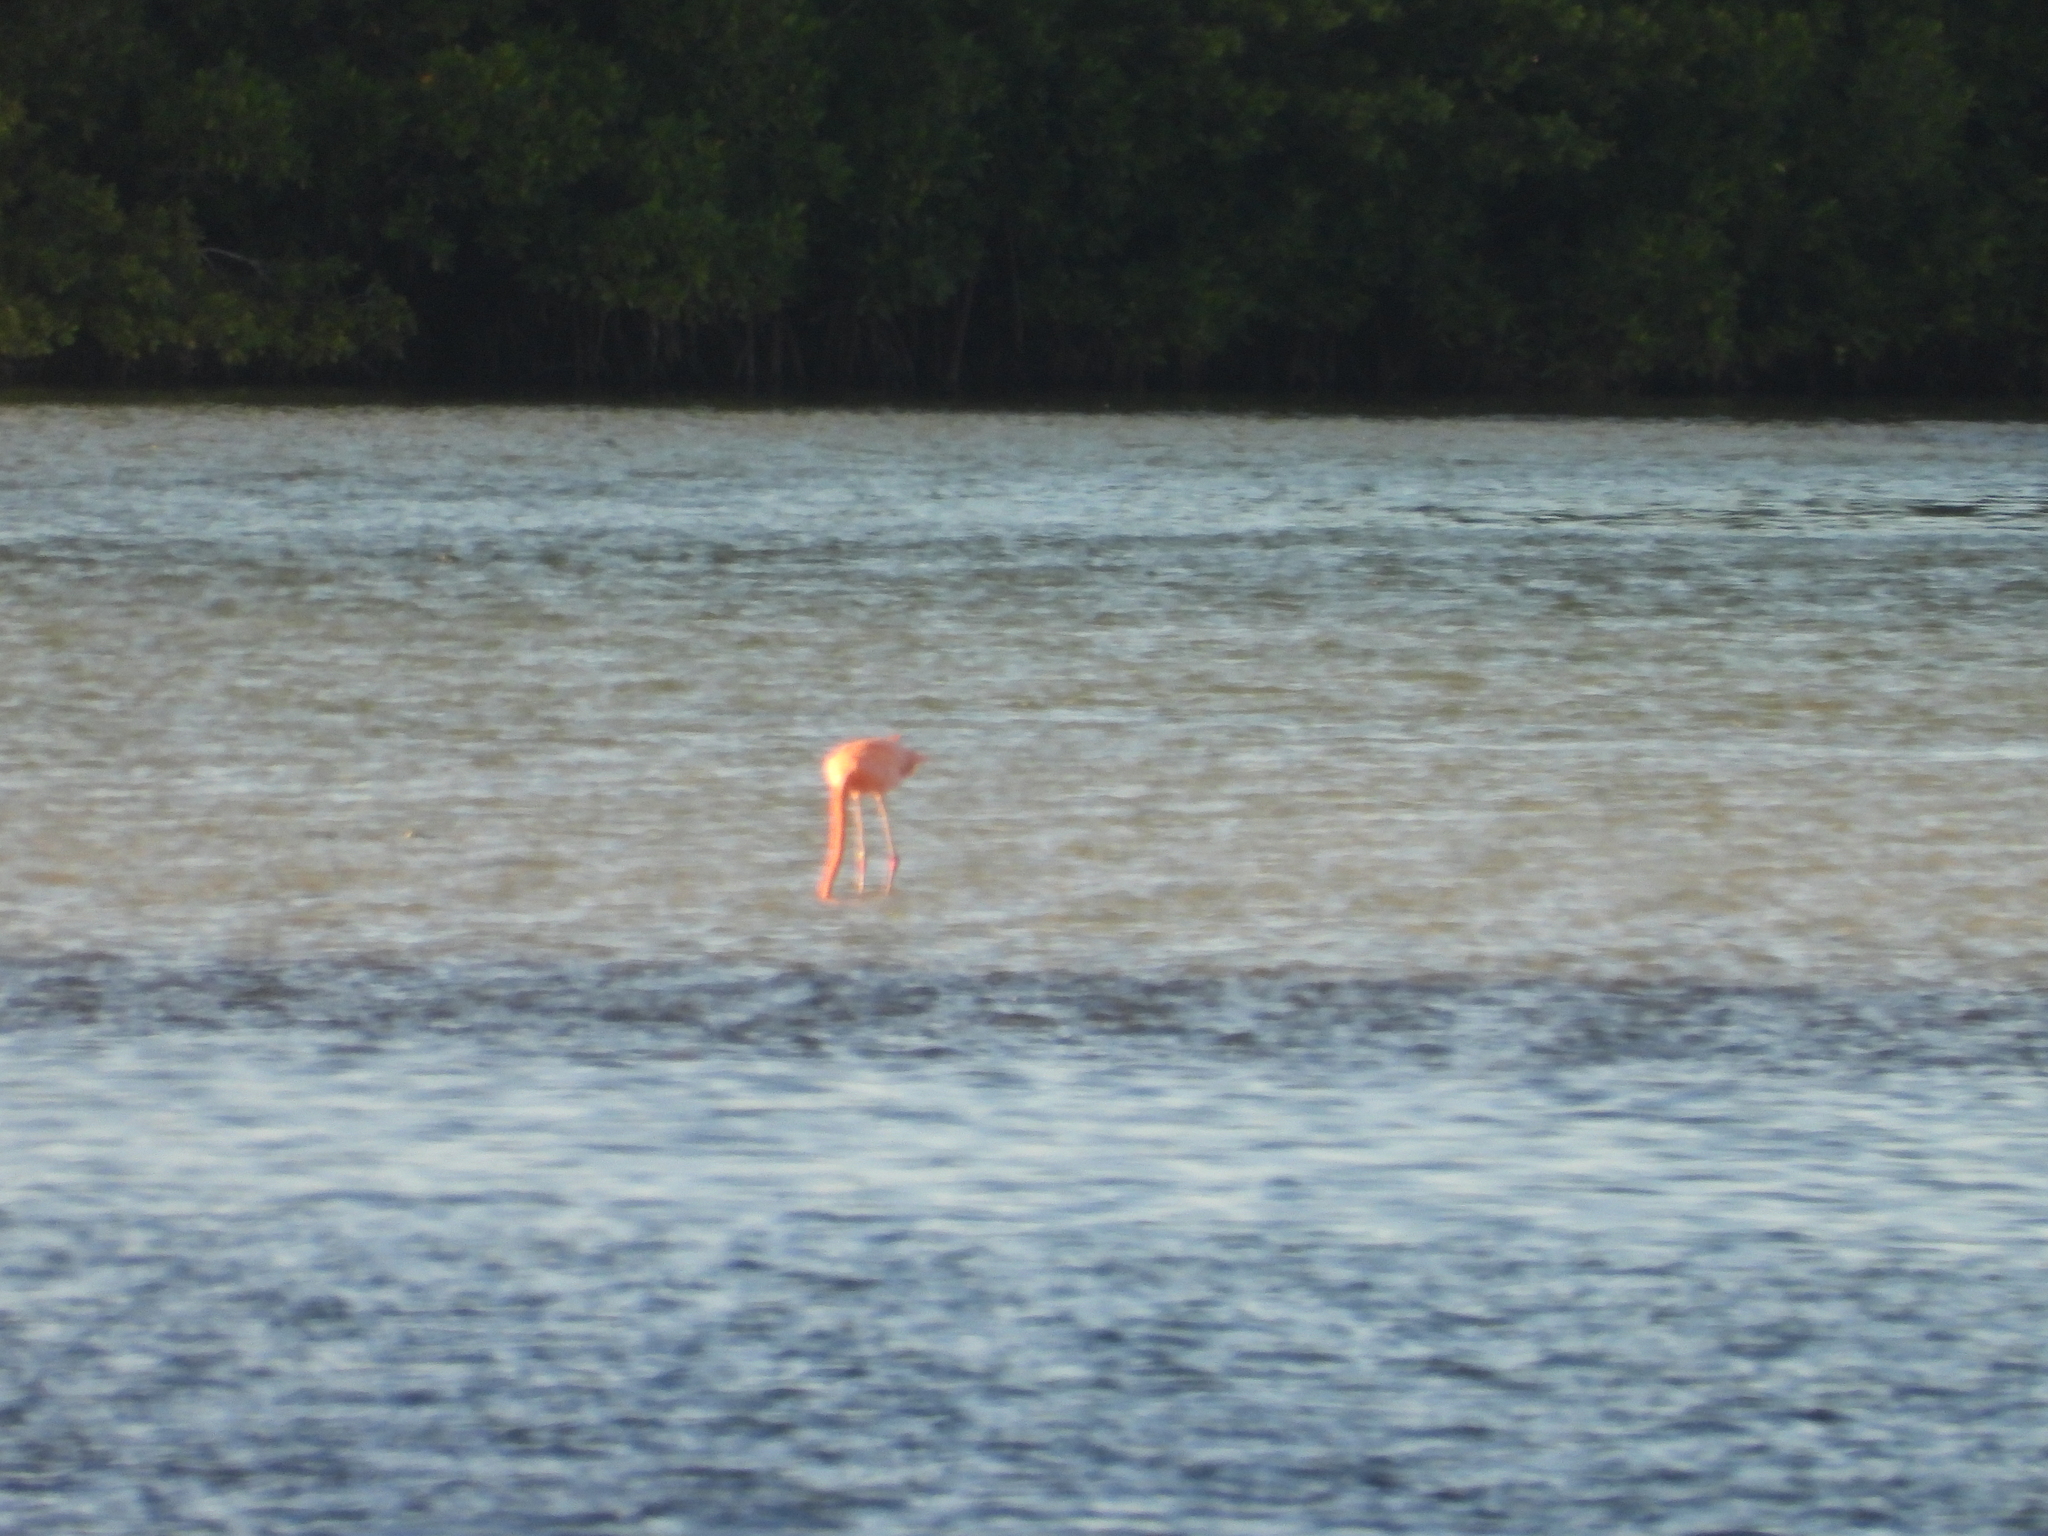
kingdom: Animalia
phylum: Chordata
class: Aves
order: Phoenicopteriformes
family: Phoenicopteridae
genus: Phoenicopterus
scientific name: Phoenicopterus ruber
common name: American flamingo
